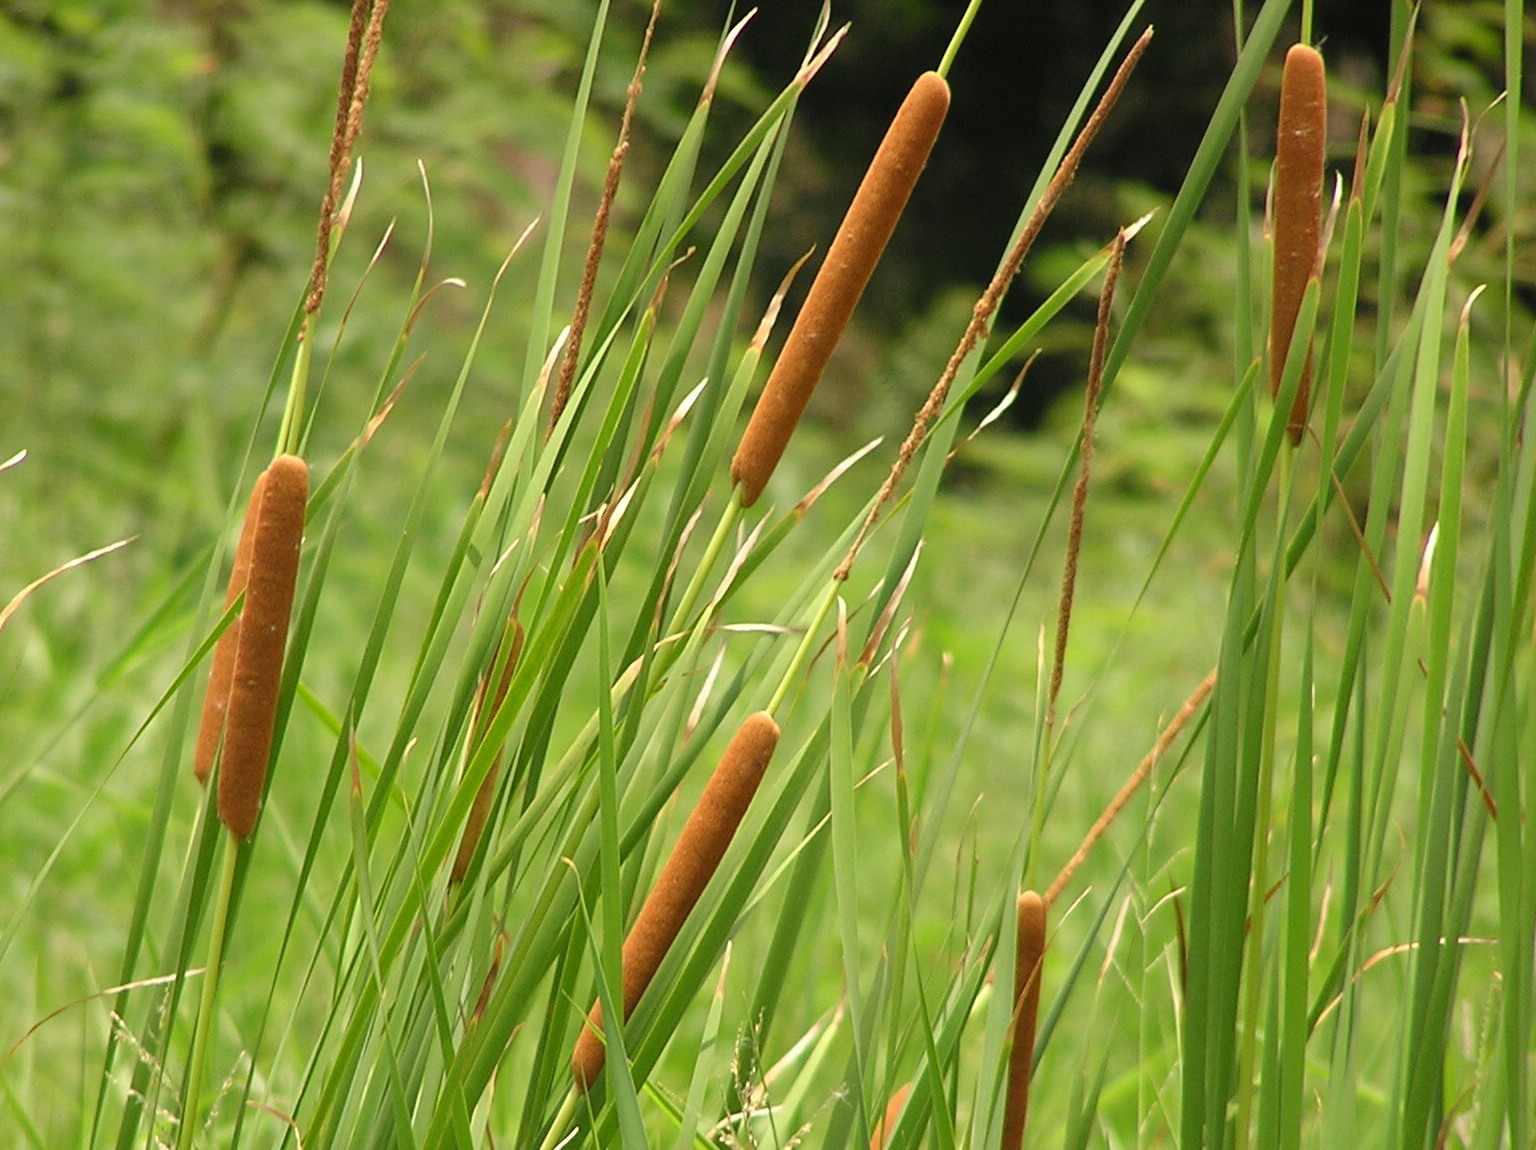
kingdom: Plantae
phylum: Tracheophyta
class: Liliopsida
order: Poales
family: Typhaceae
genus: Typha
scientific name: Typha angustifolia
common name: Lesser bulrush
